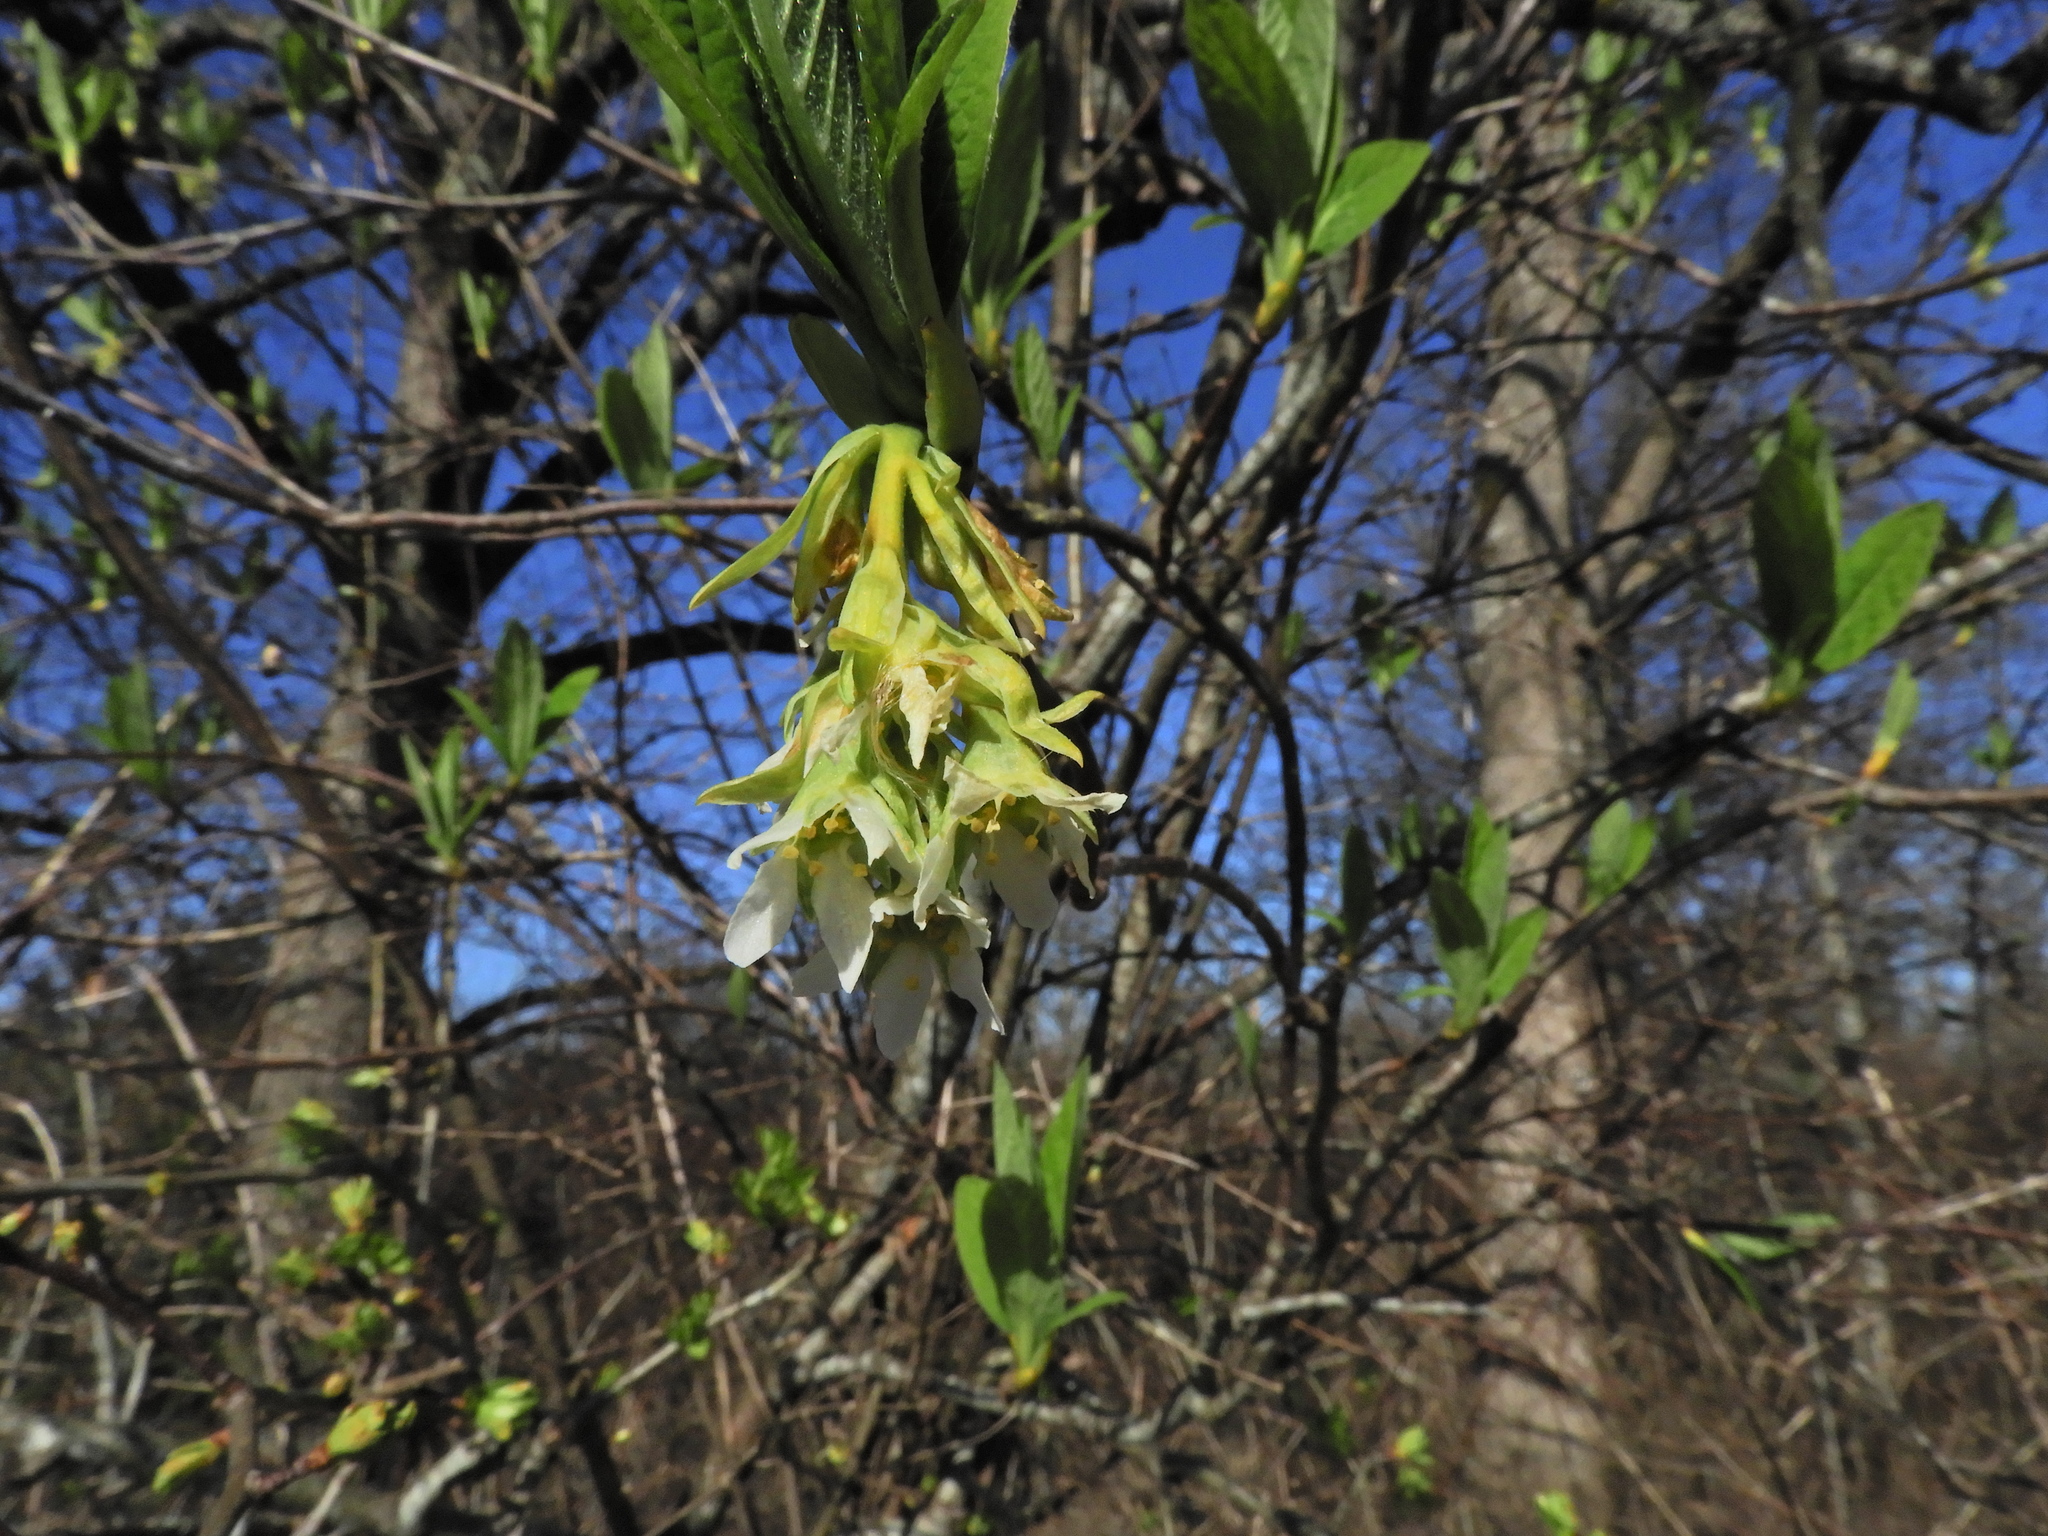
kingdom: Plantae
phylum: Tracheophyta
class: Magnoliopsida
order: Rosales
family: Rosaceae
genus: Oemleria
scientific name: Oemleria cerasiformis
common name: Osoberry
